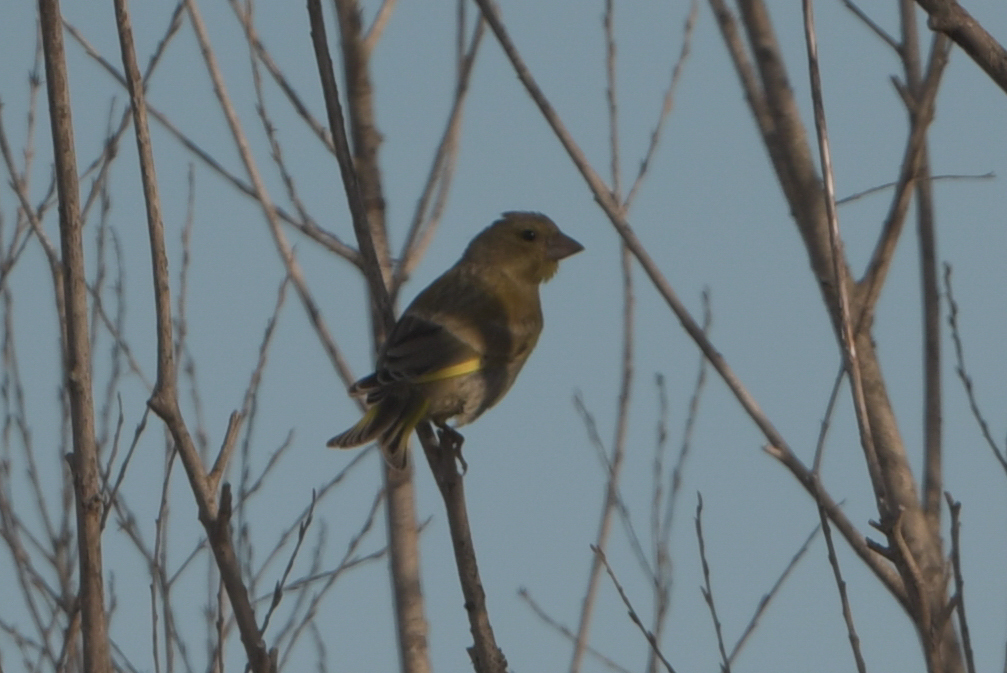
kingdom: Plantae
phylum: Tracheophyta
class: Liliopsida
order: Poales
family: Poaceae
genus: Chloris
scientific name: Chloris chloris
